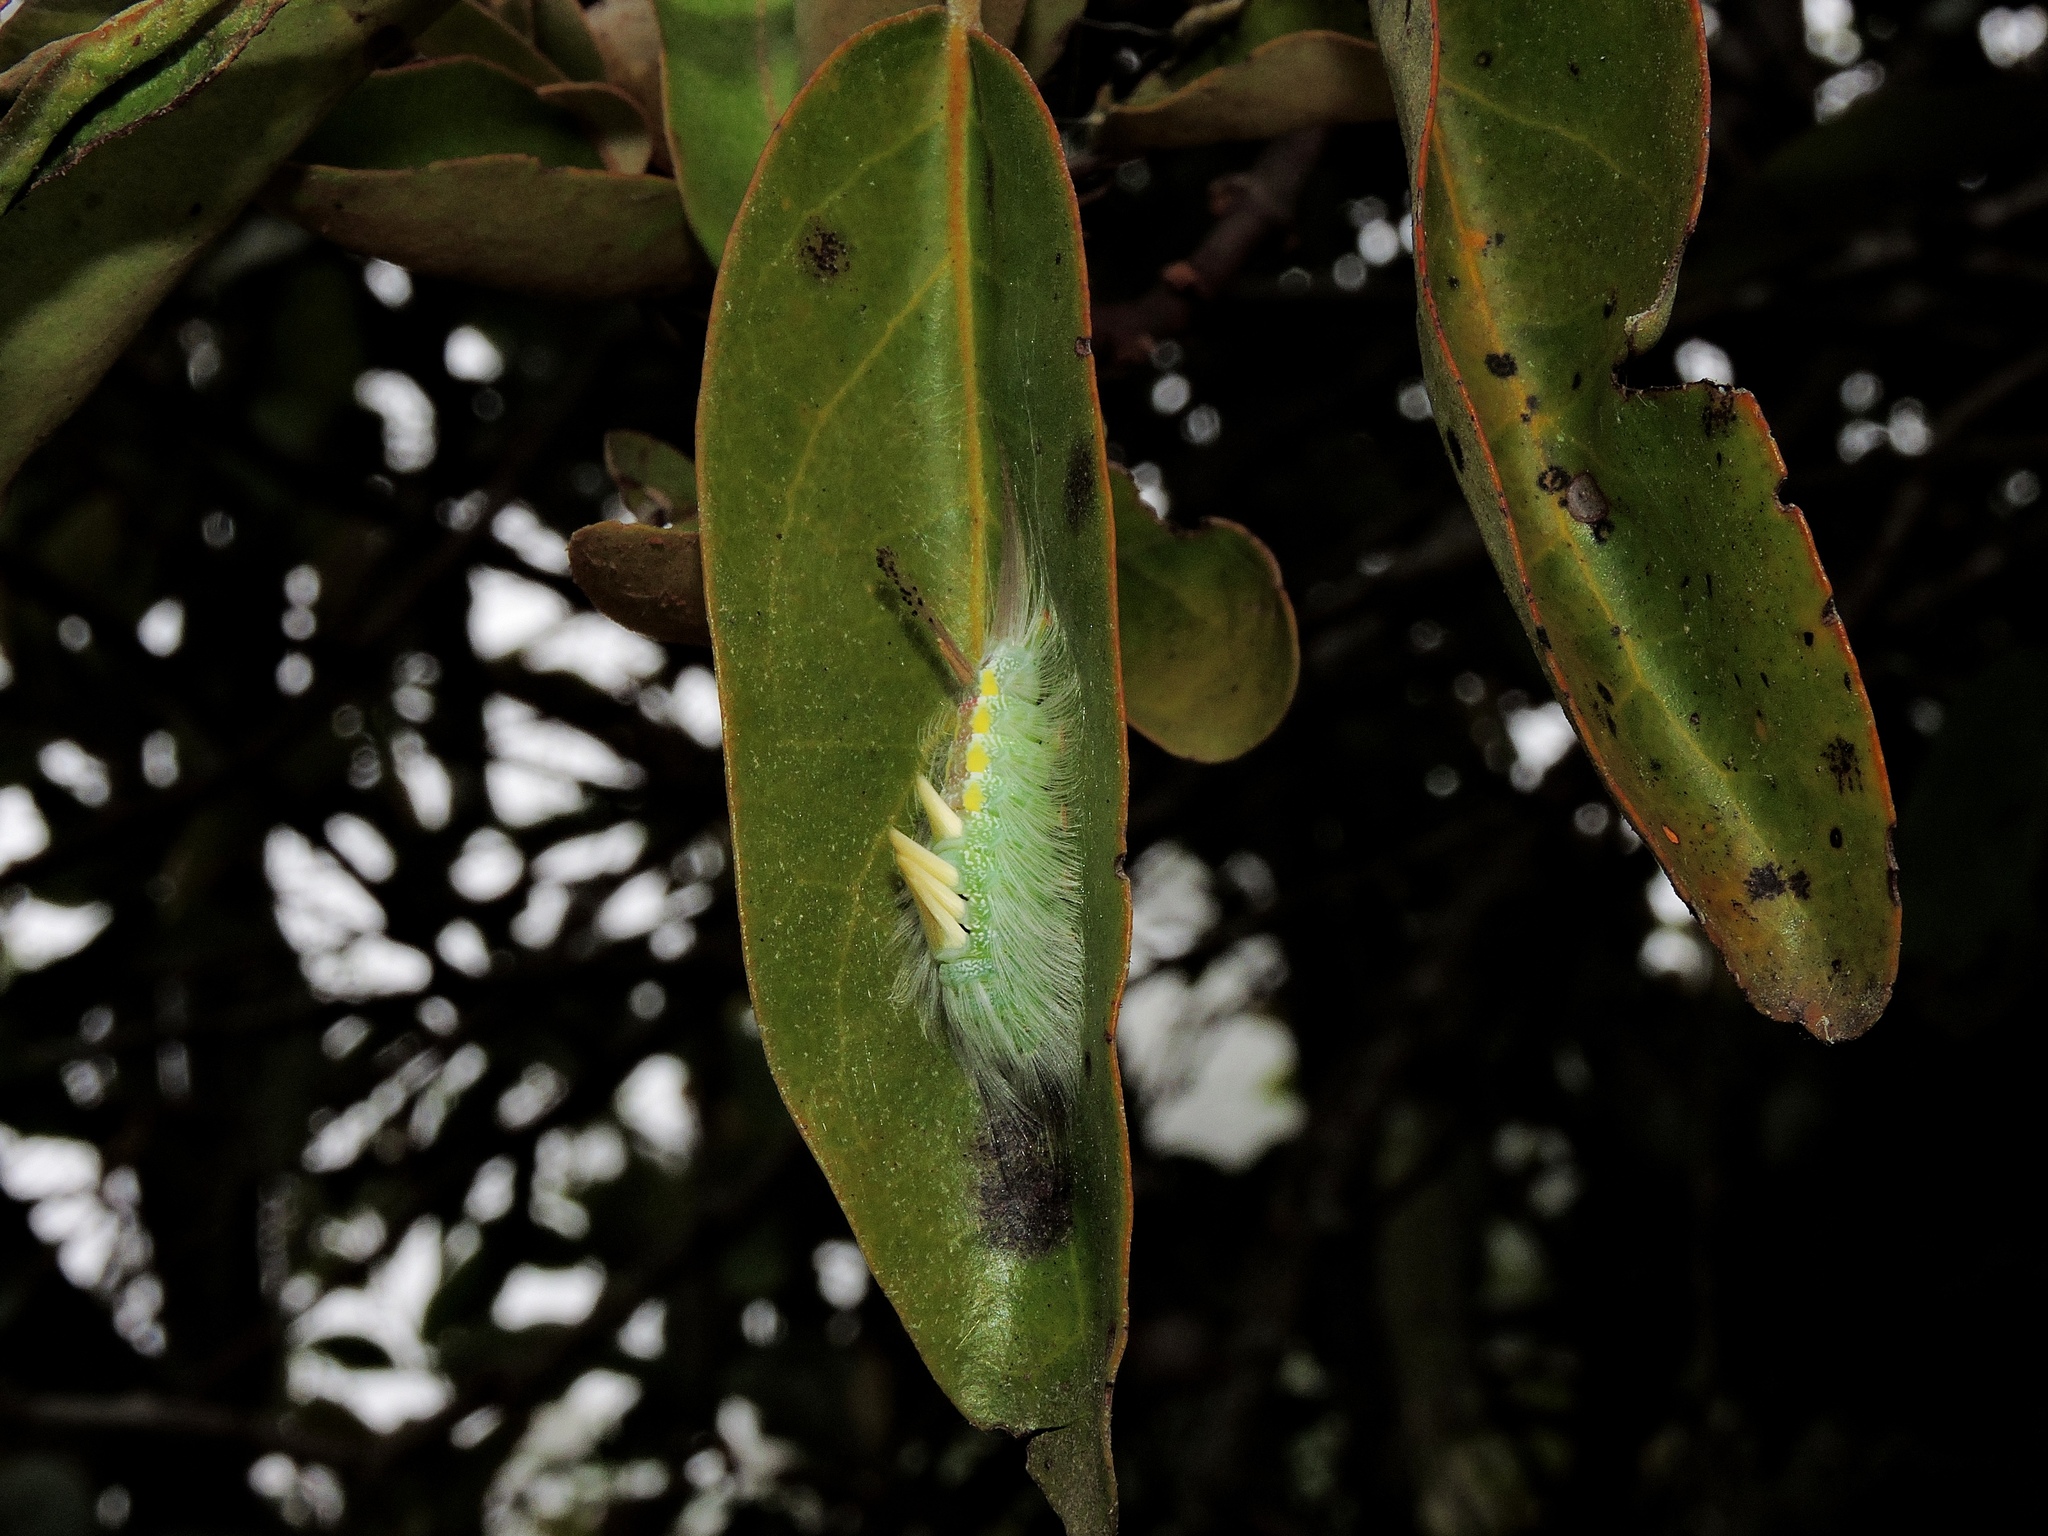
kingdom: Animalia
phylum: Arthropoda
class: Insecta
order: Lepidoptera
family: Erebidae
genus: Dasychira
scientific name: Dasychira suisharyonis
